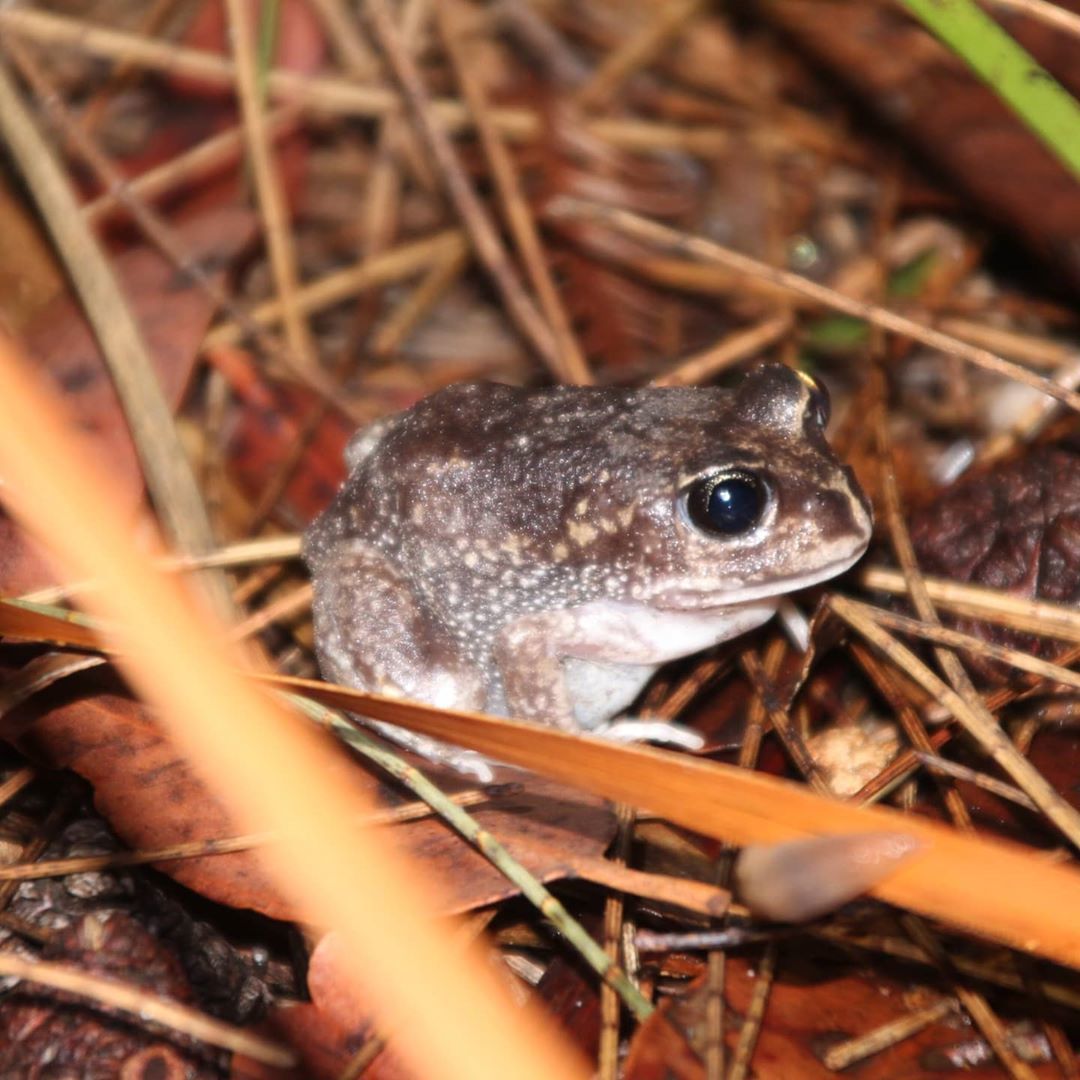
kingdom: Animalia
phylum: Chordata
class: Amphibia
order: Anura
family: Limnodynastidae
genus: Heleioporus
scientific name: Heleioporus psammophilus
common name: Sand frog
